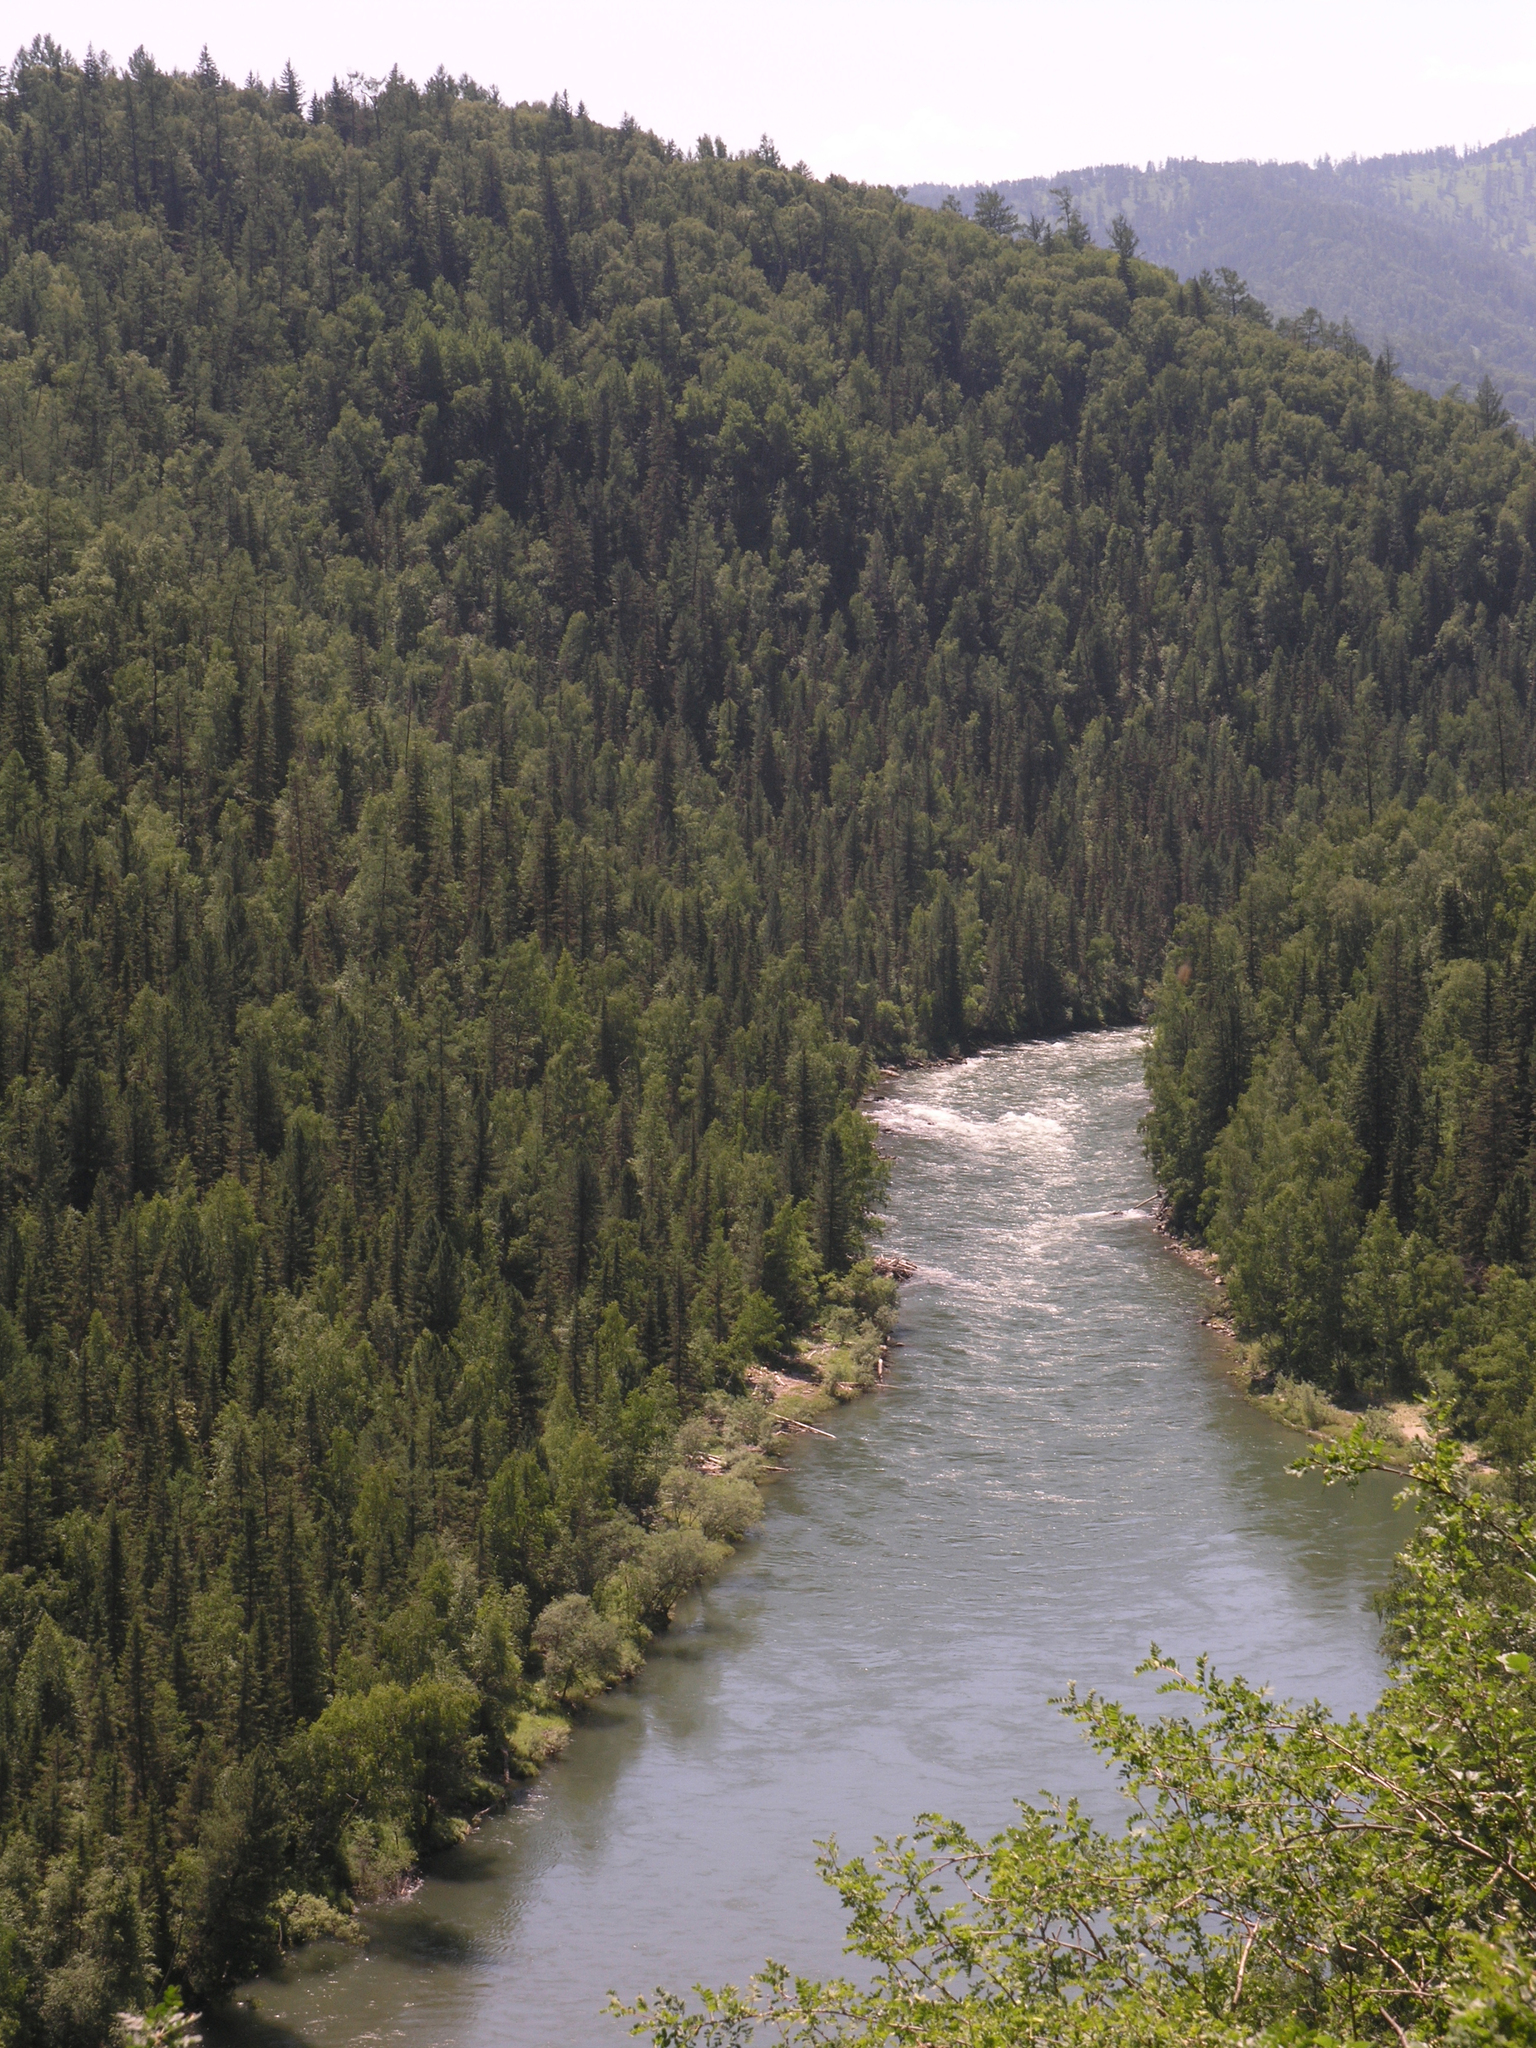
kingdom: Plantae
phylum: Tracheophyta
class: Pinopsida
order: Pinales
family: Pinaceae
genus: Picea
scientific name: Picea obovata
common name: Siberian spruce
